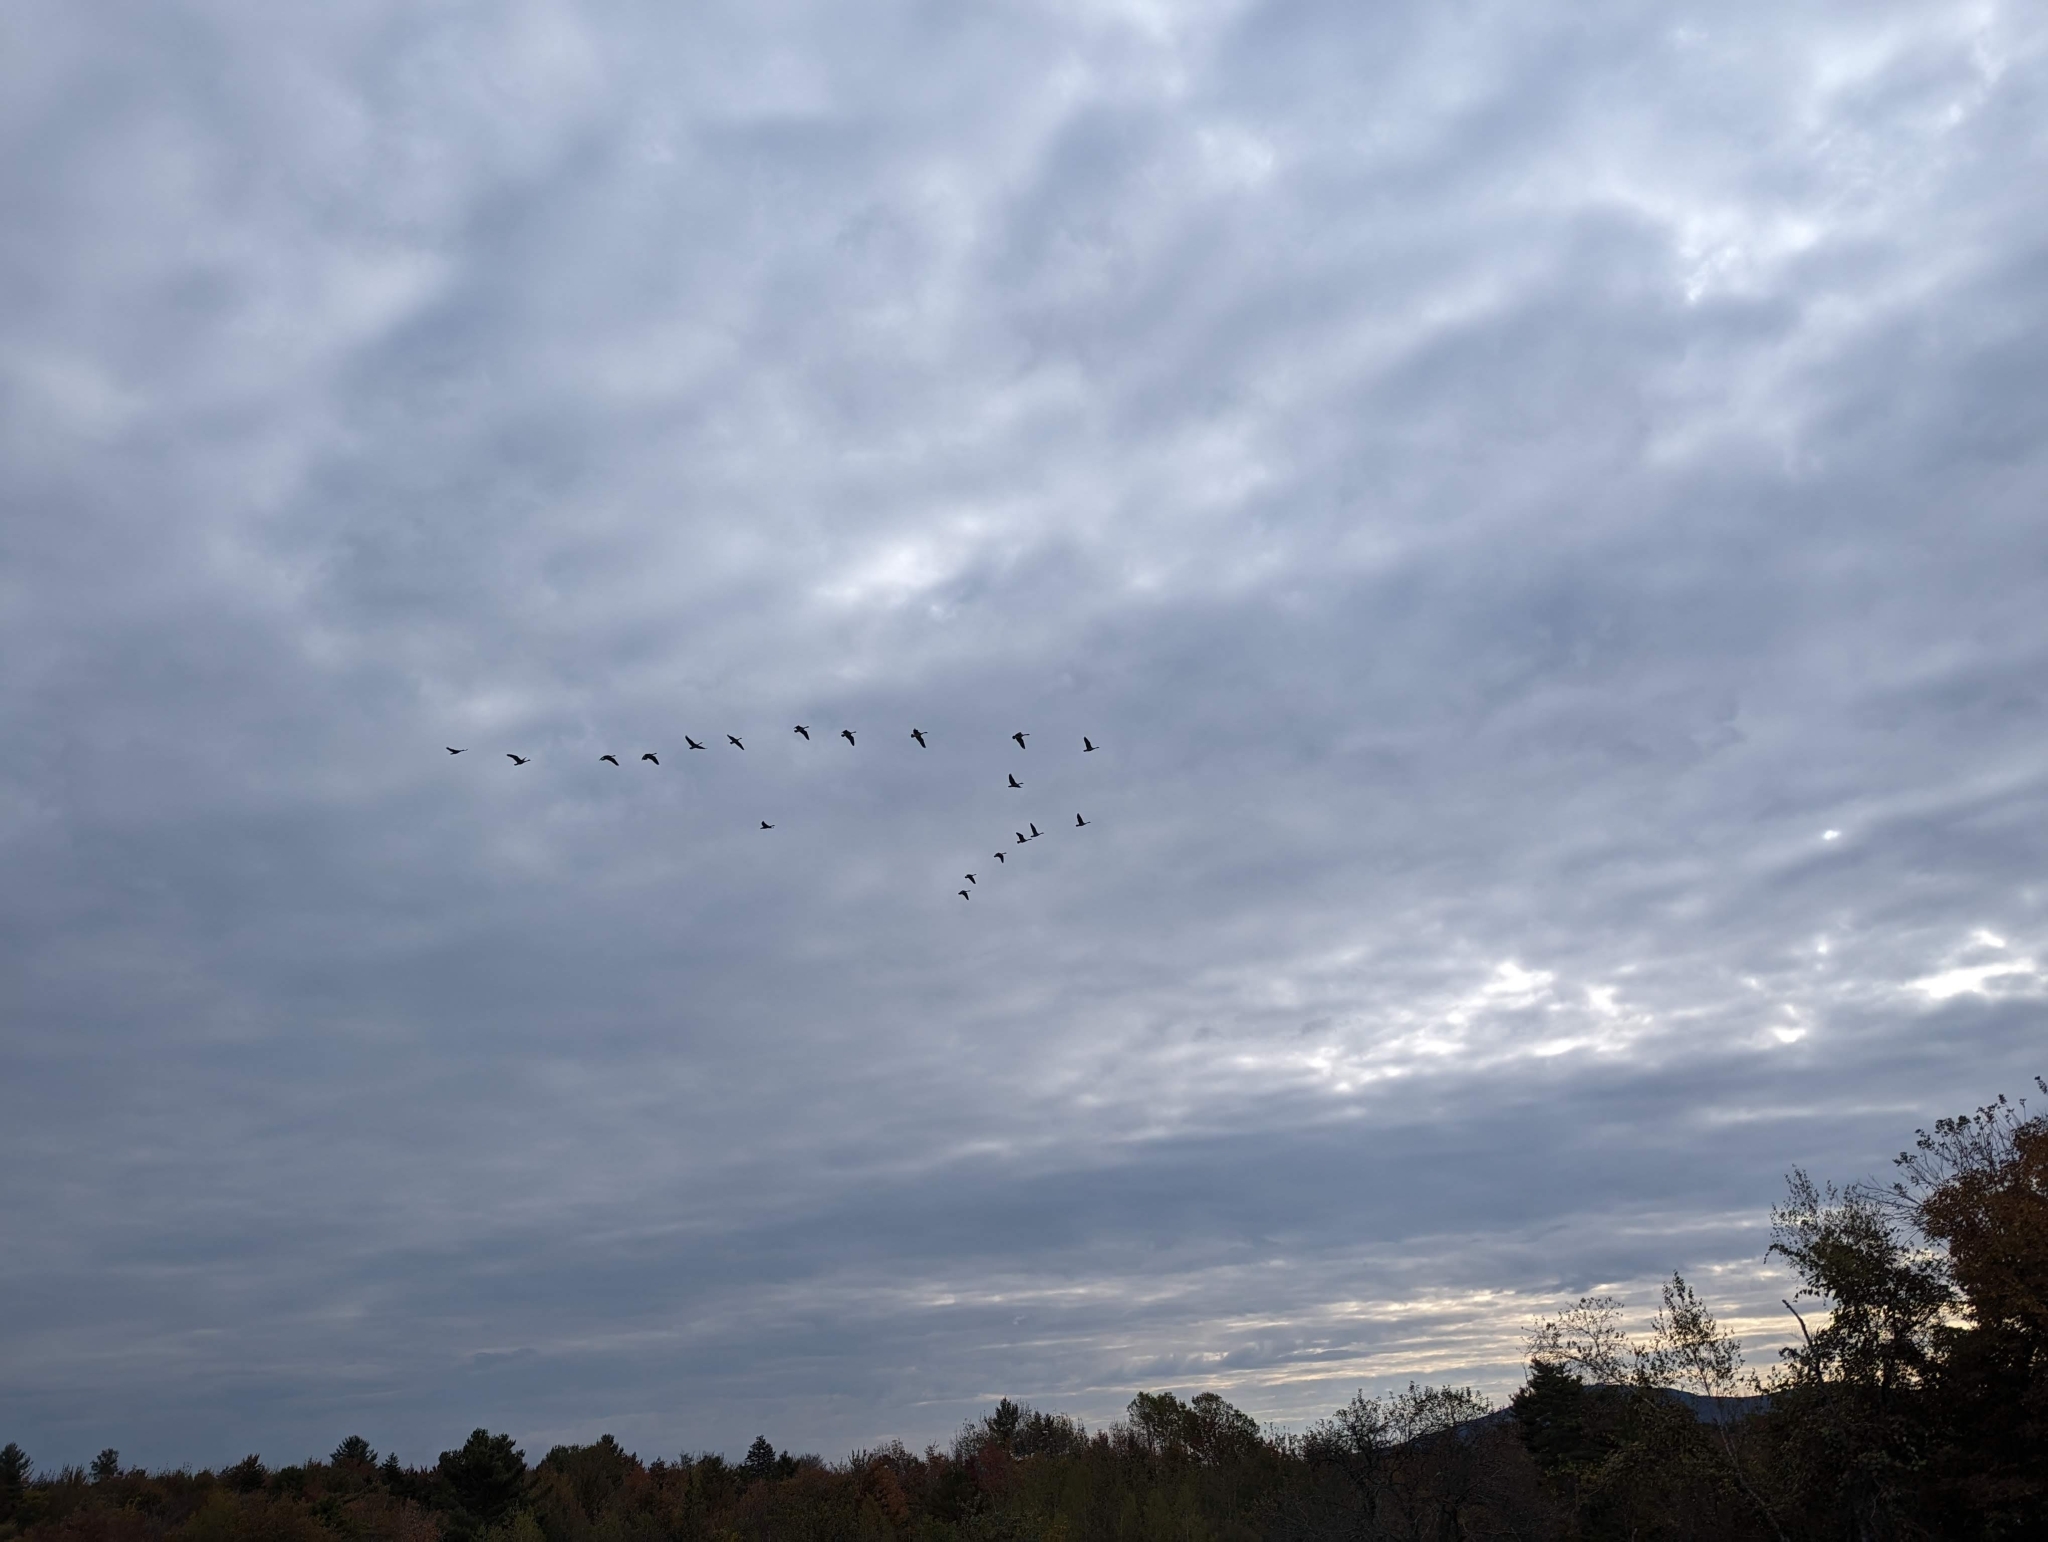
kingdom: Animalia
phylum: Chordata
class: Aves
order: Anseriformes
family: Anatidae
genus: Branta
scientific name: Branta canadensis
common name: Canada goose
